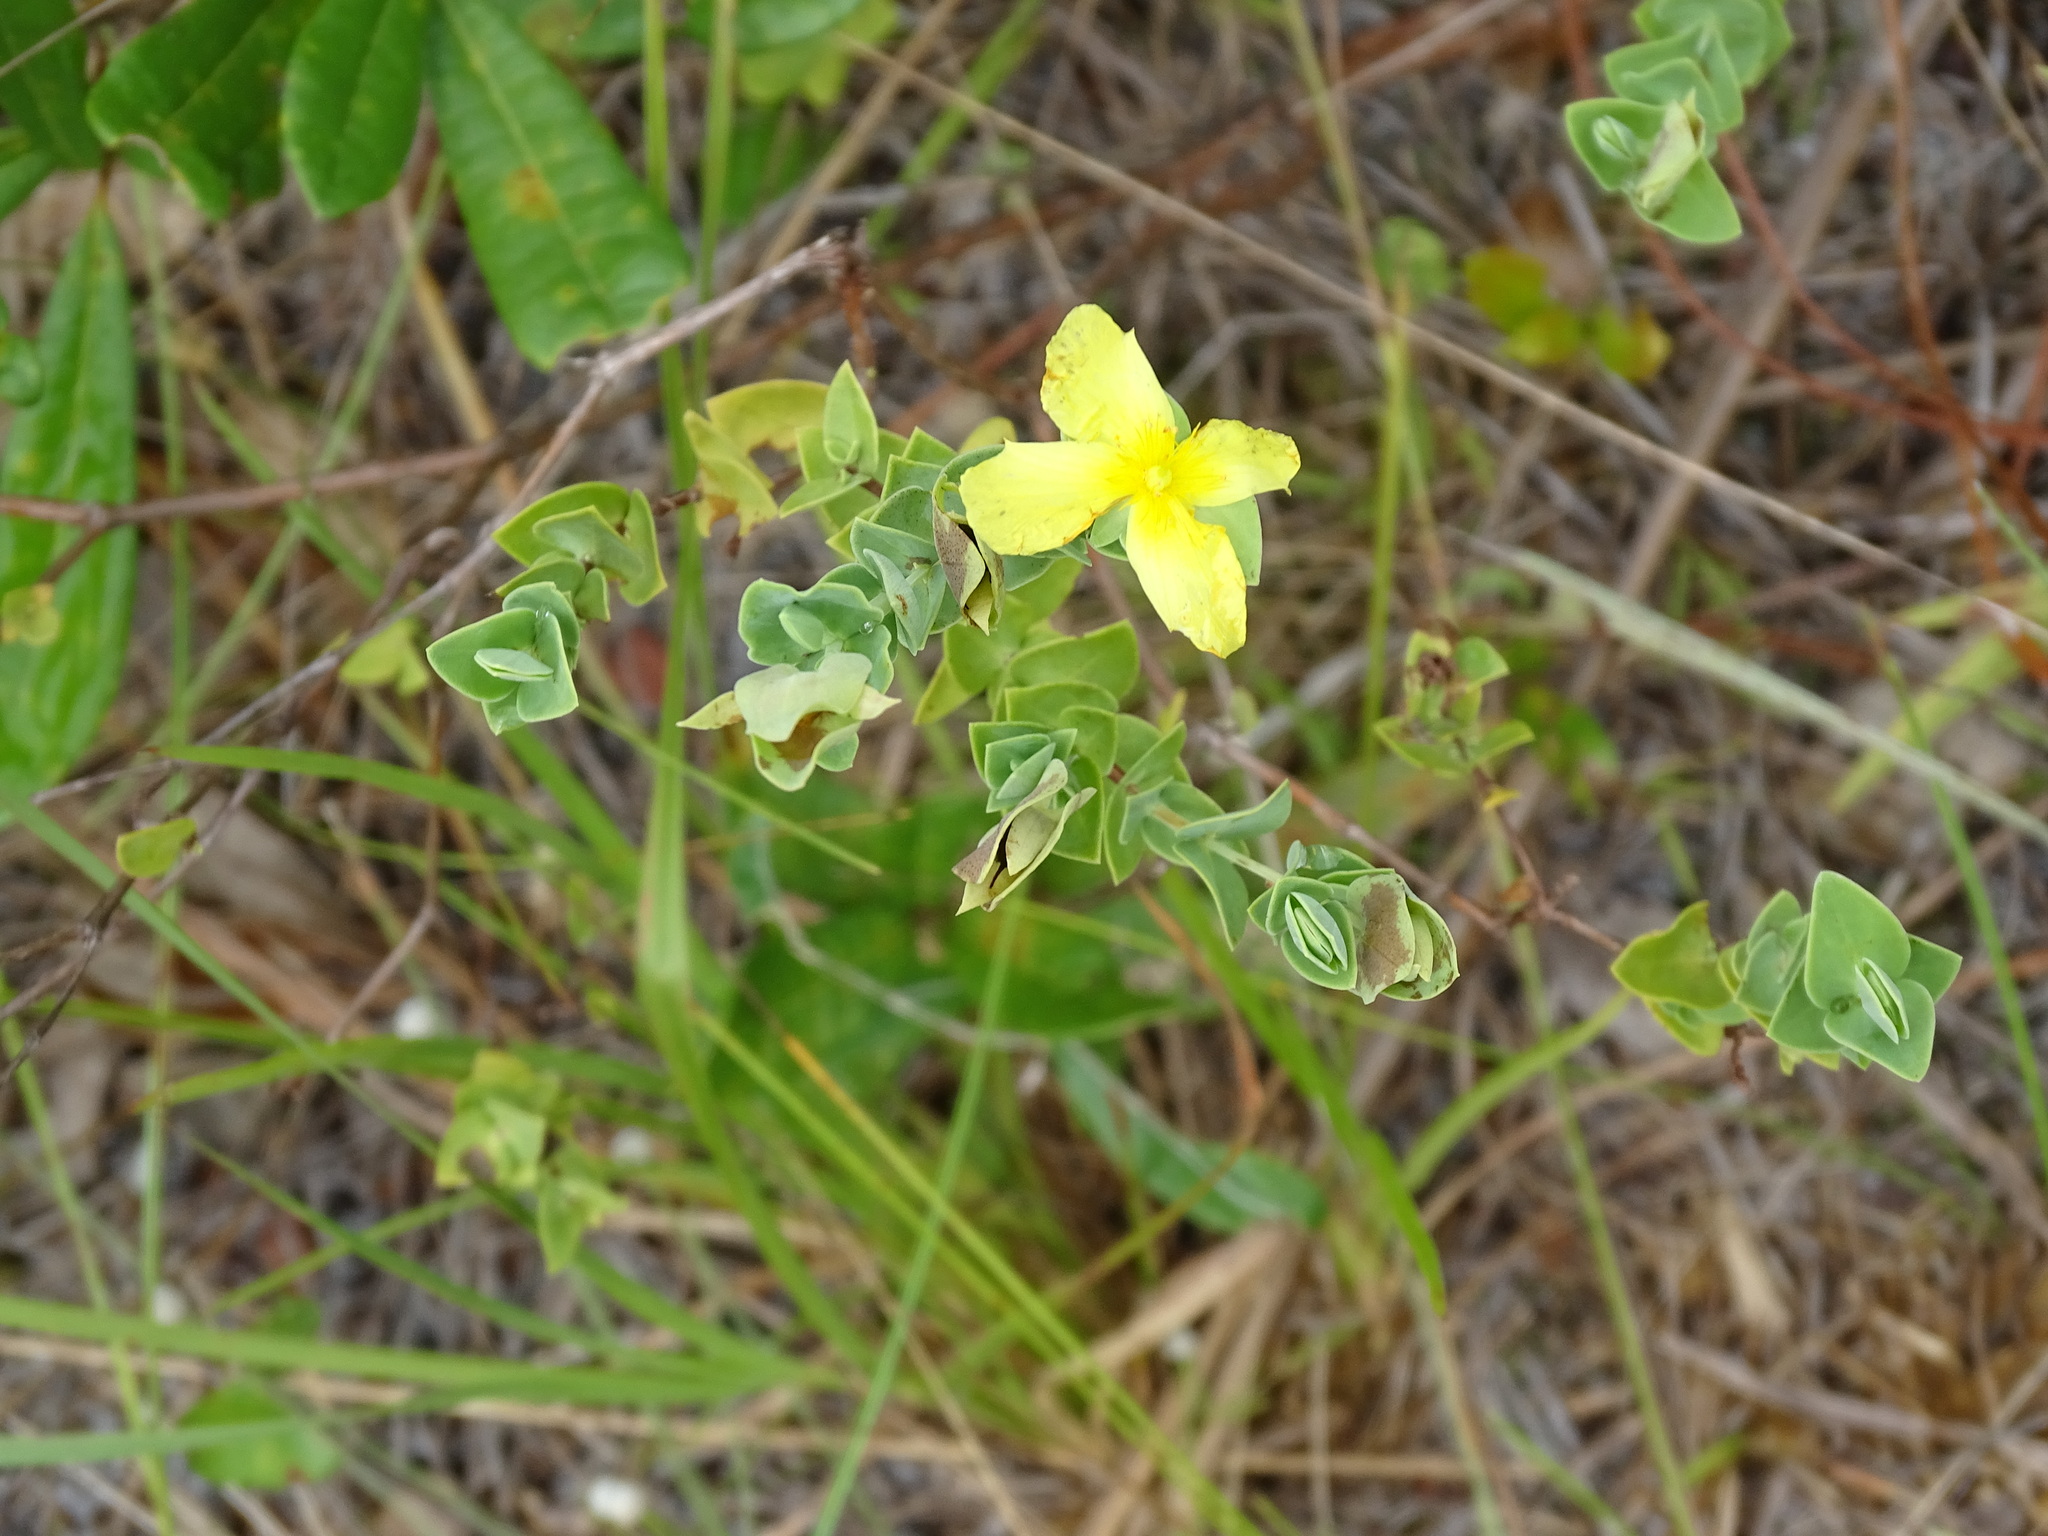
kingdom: Plantae
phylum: Tracheophyta
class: Magnoliopsida
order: Malpighiales
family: Hypericaceae
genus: Hypericum
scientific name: Hypericum tetrapetalum
